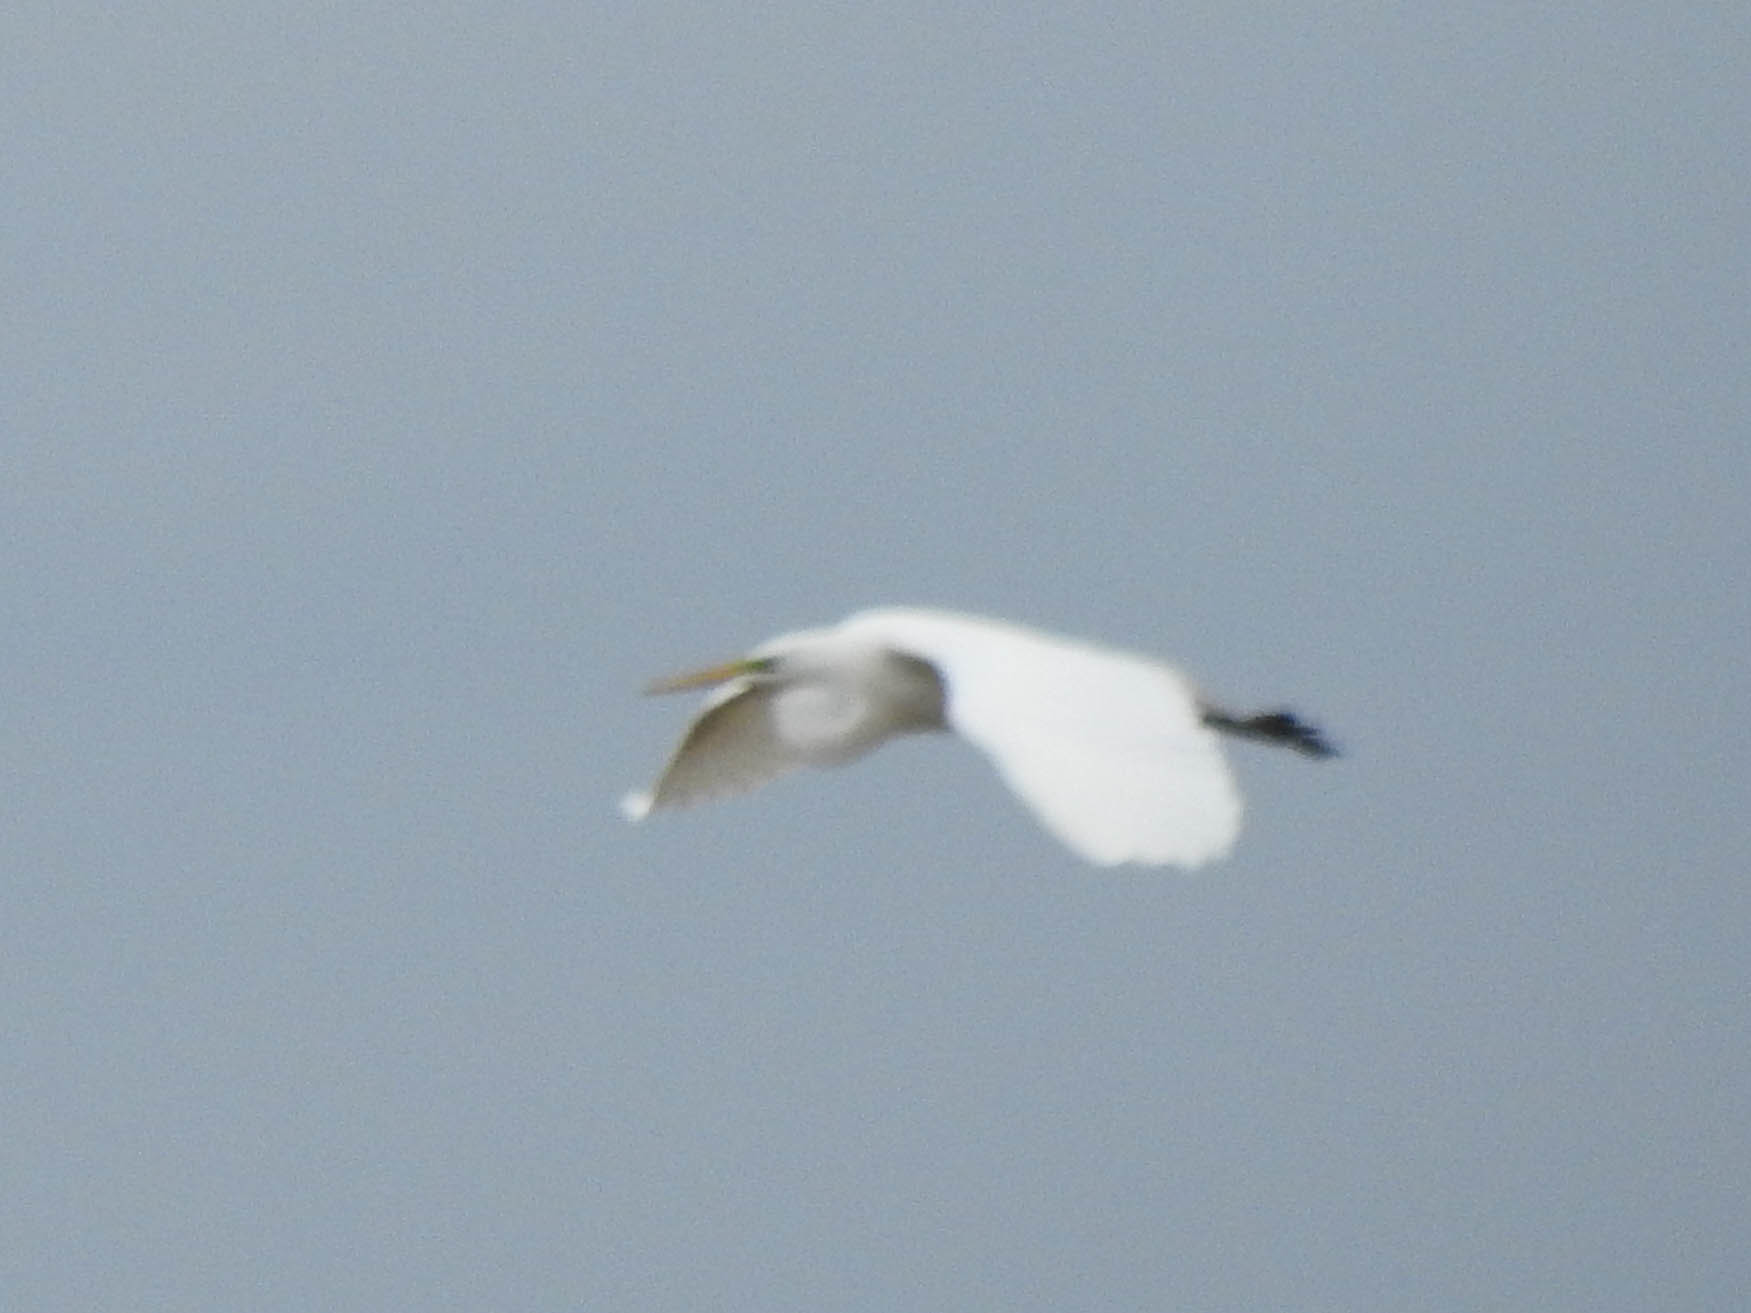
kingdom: Animalia
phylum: Chordata
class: Aves
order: Pelecaniformes
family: Ardeidae
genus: Bubulcus
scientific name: Bubulcus ibis
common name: Cattle egret
